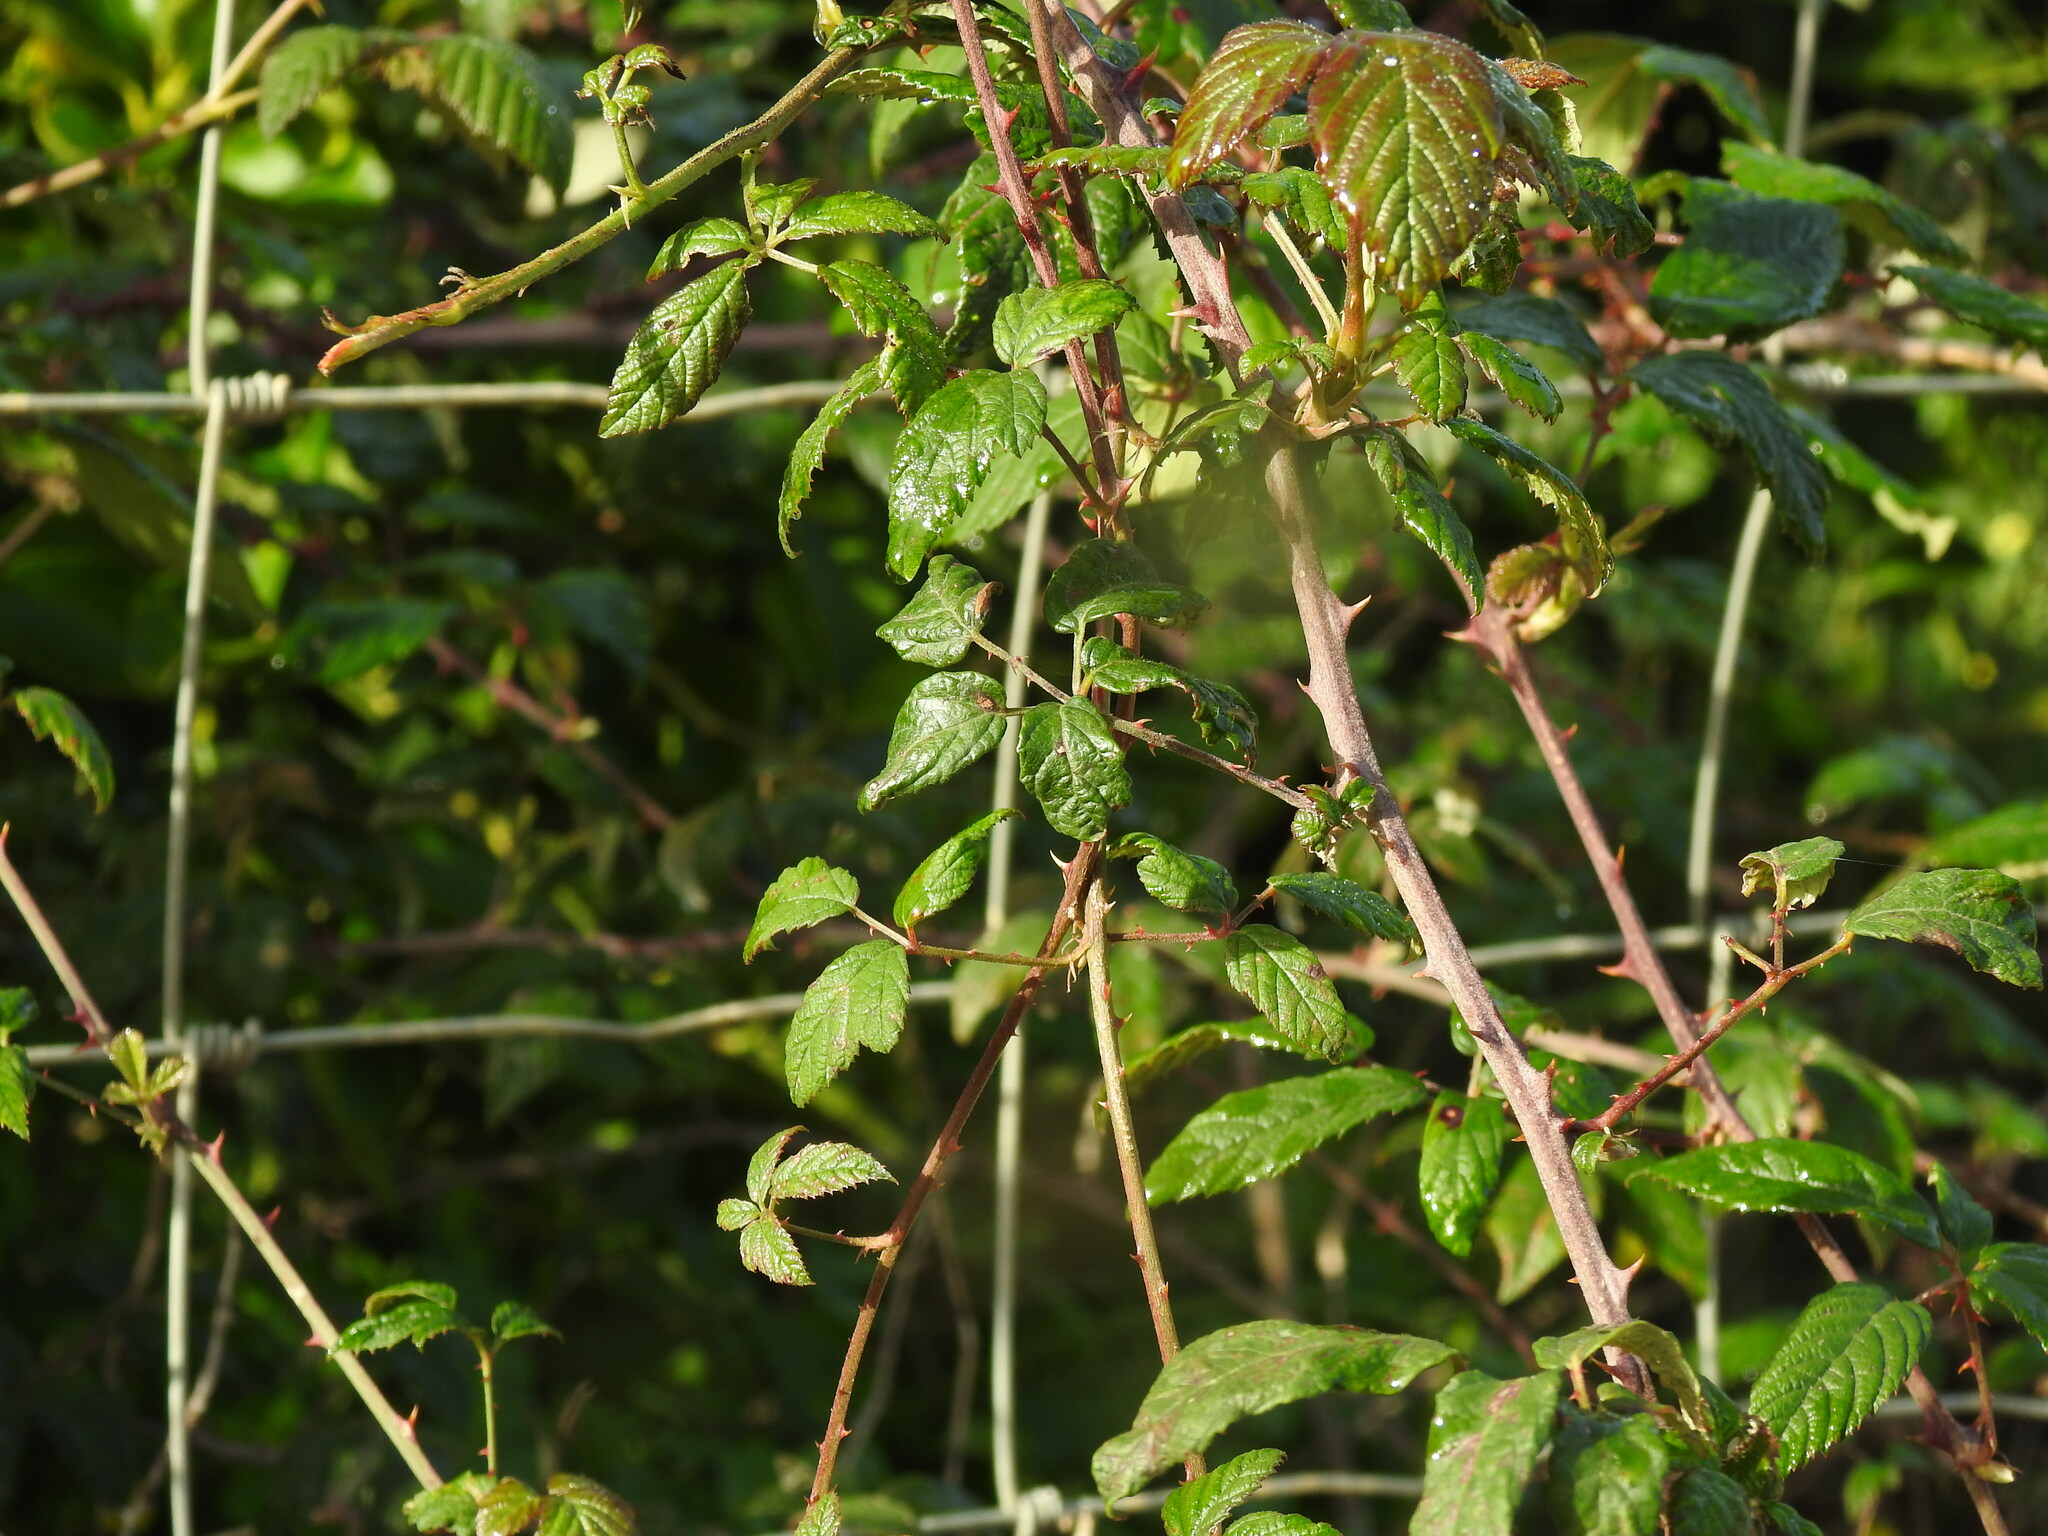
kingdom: Plantae
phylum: Tracheophyta
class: Magnoliopsida
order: Rosales
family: Rosaceae
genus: Rubus
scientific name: Rubus ulmifolius
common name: Elmleaf blackberry
